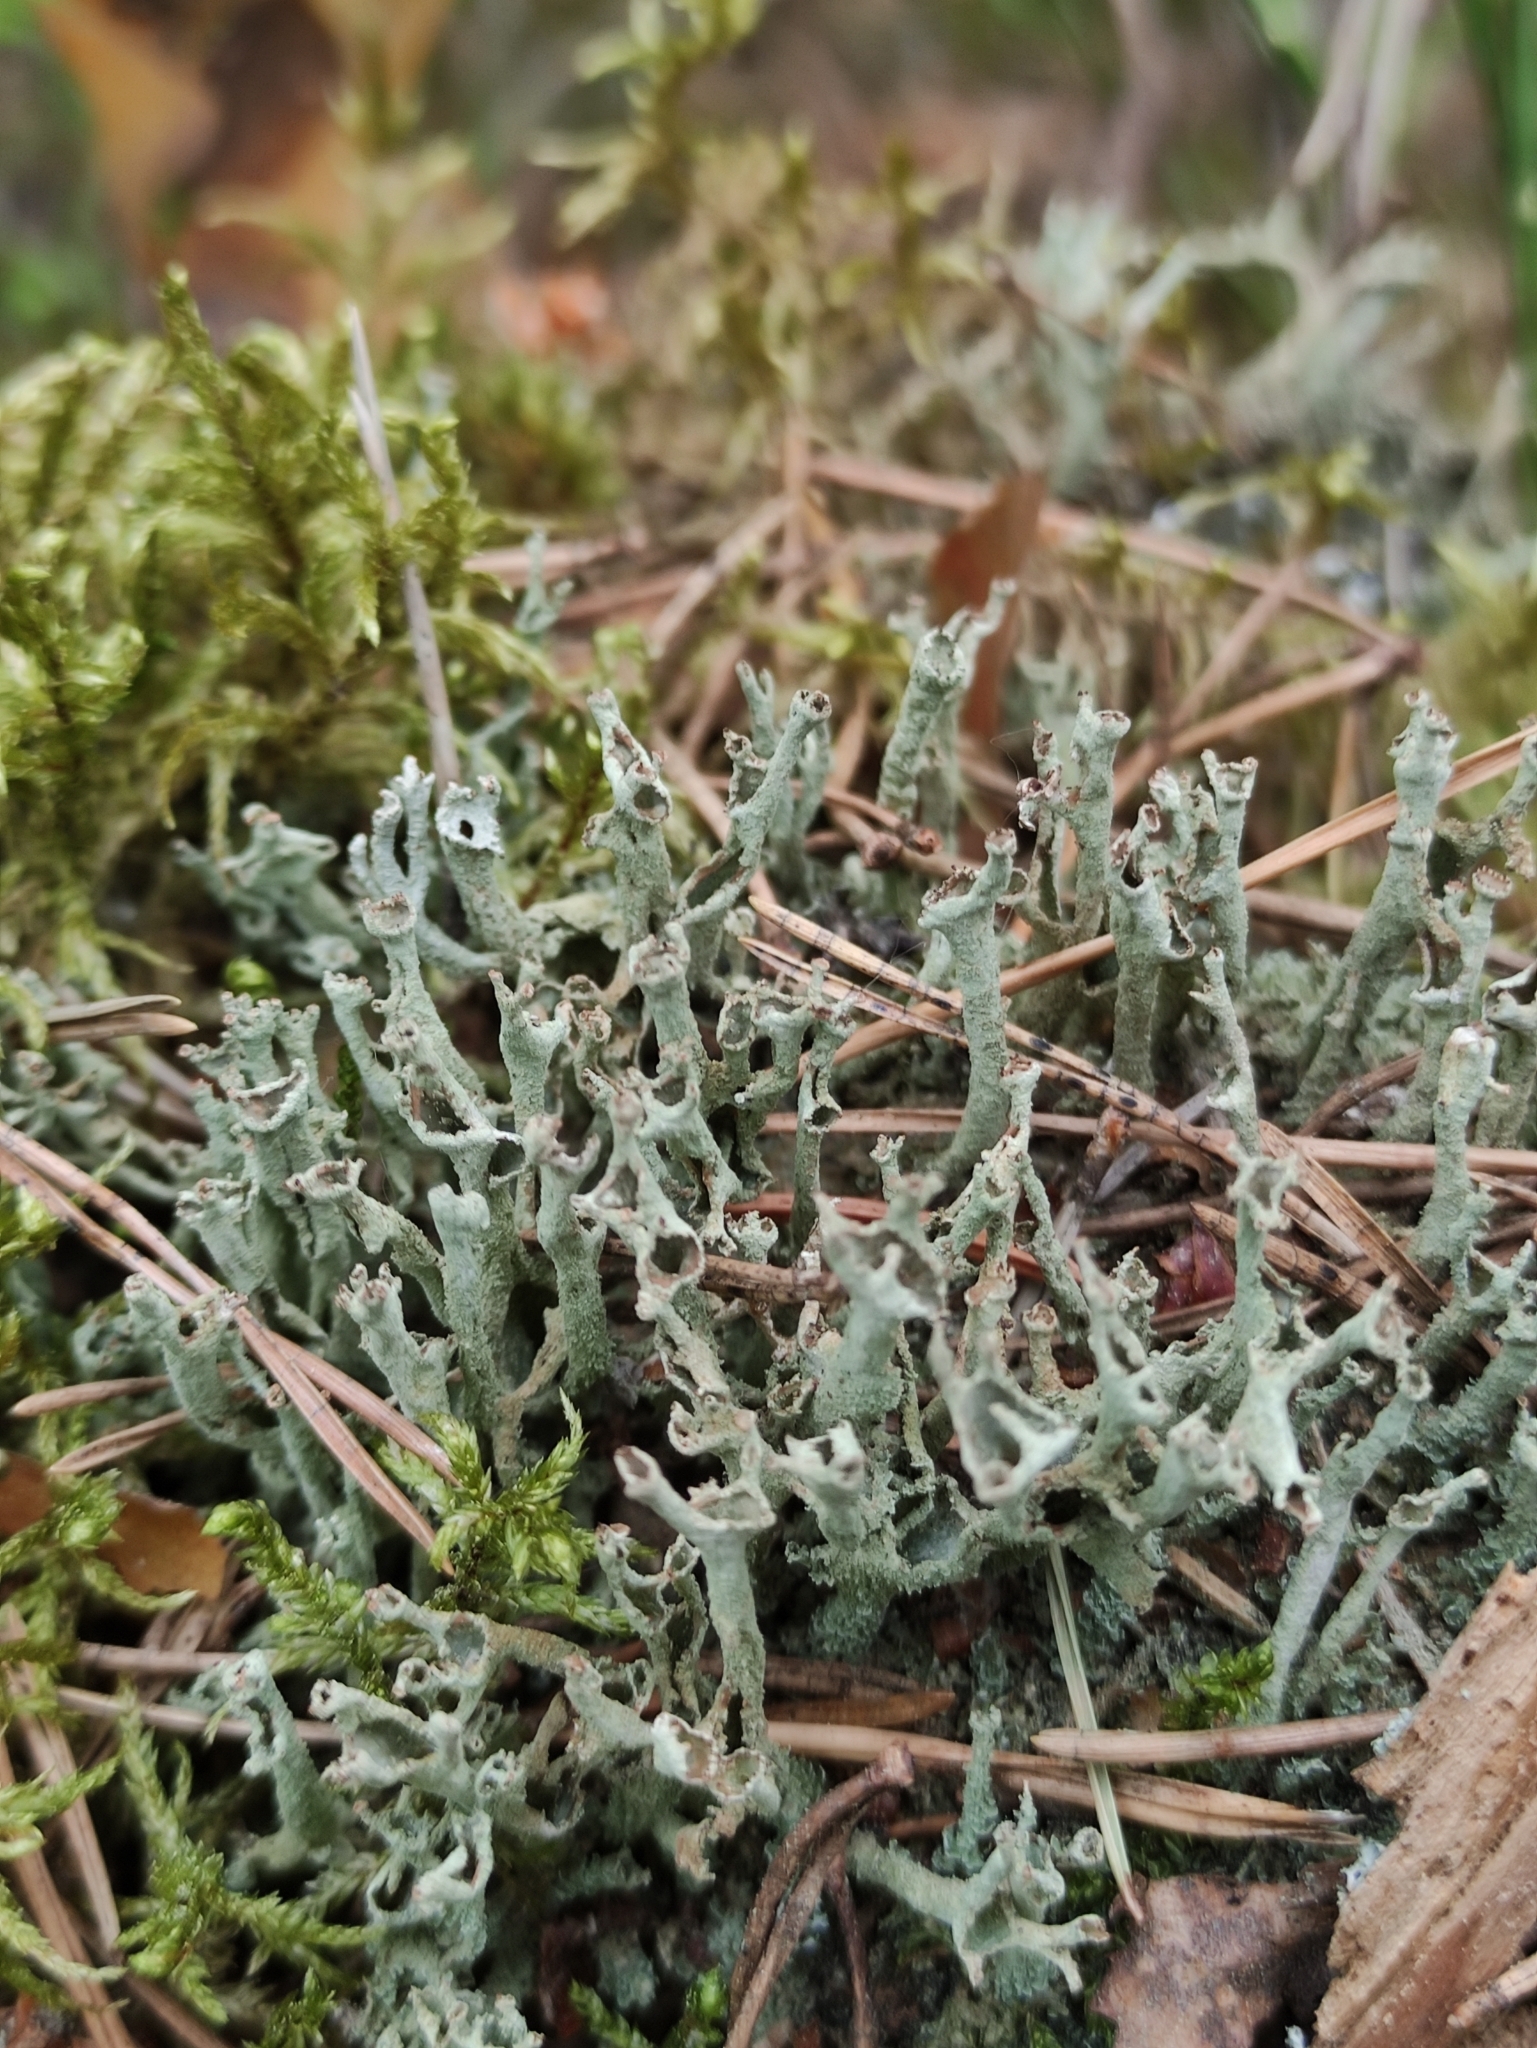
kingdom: Fungi
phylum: Ascomycota
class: Lecanoromycetes
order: Lecanorales
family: Cladoniaceae
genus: Cladonia
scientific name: Cladonia cenotea
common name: Powdered funnel lichen
